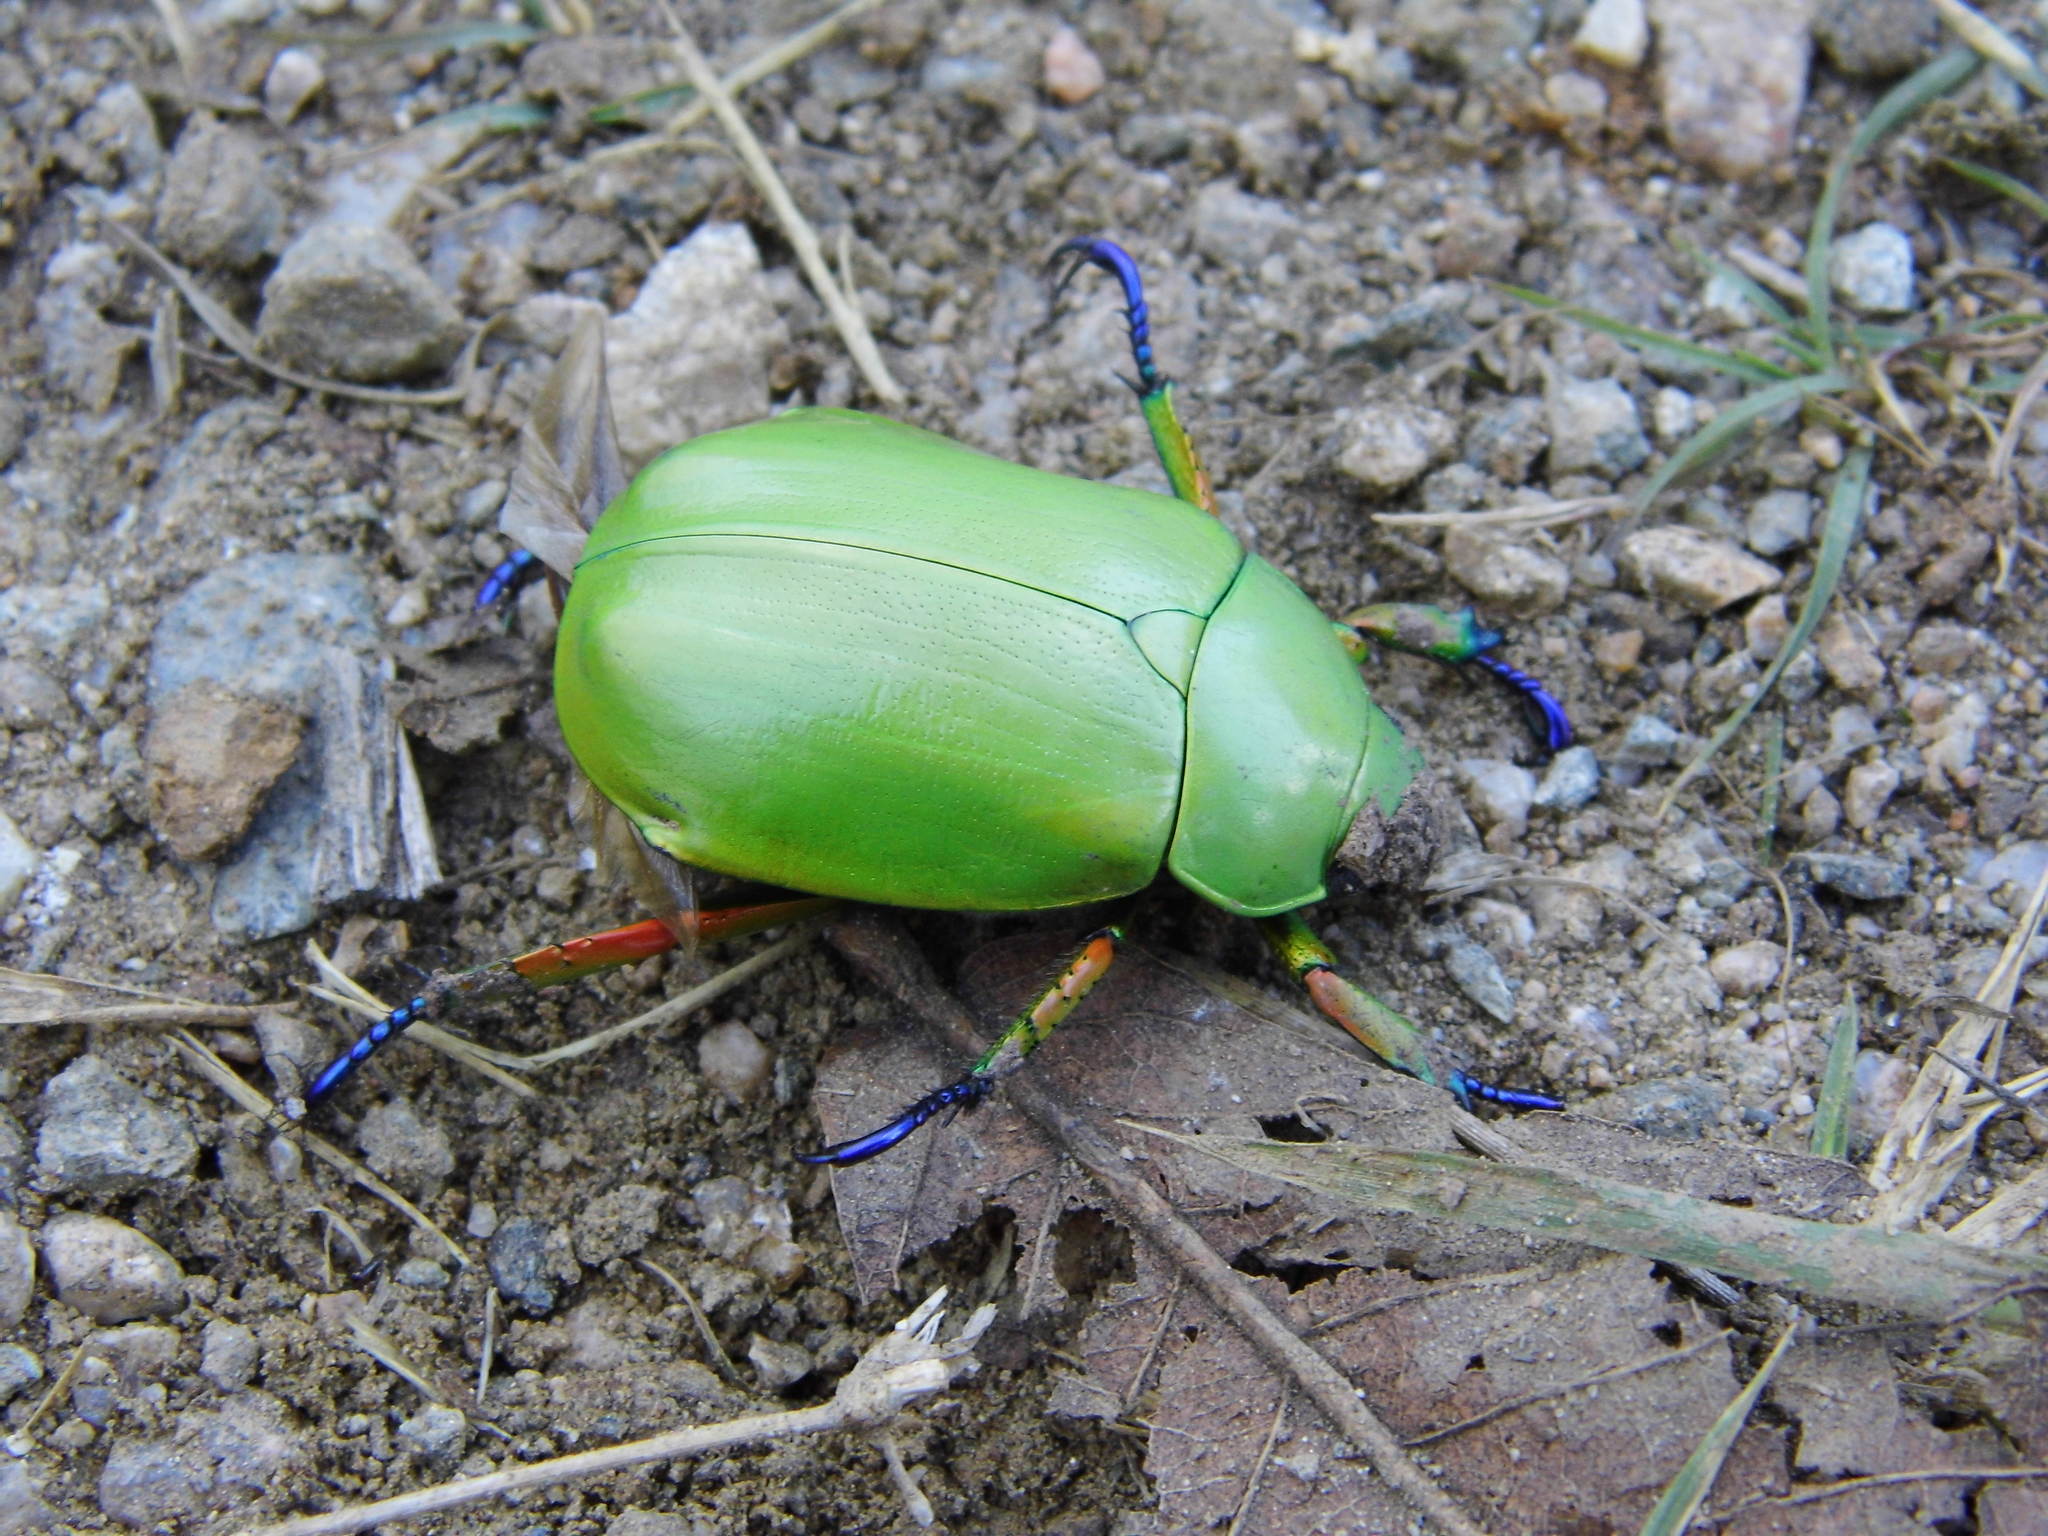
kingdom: Animalia
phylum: Arthropoda
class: Insecta
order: Coleoptera
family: Scarabaeidae
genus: Chrysina
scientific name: Chrysina macropus
